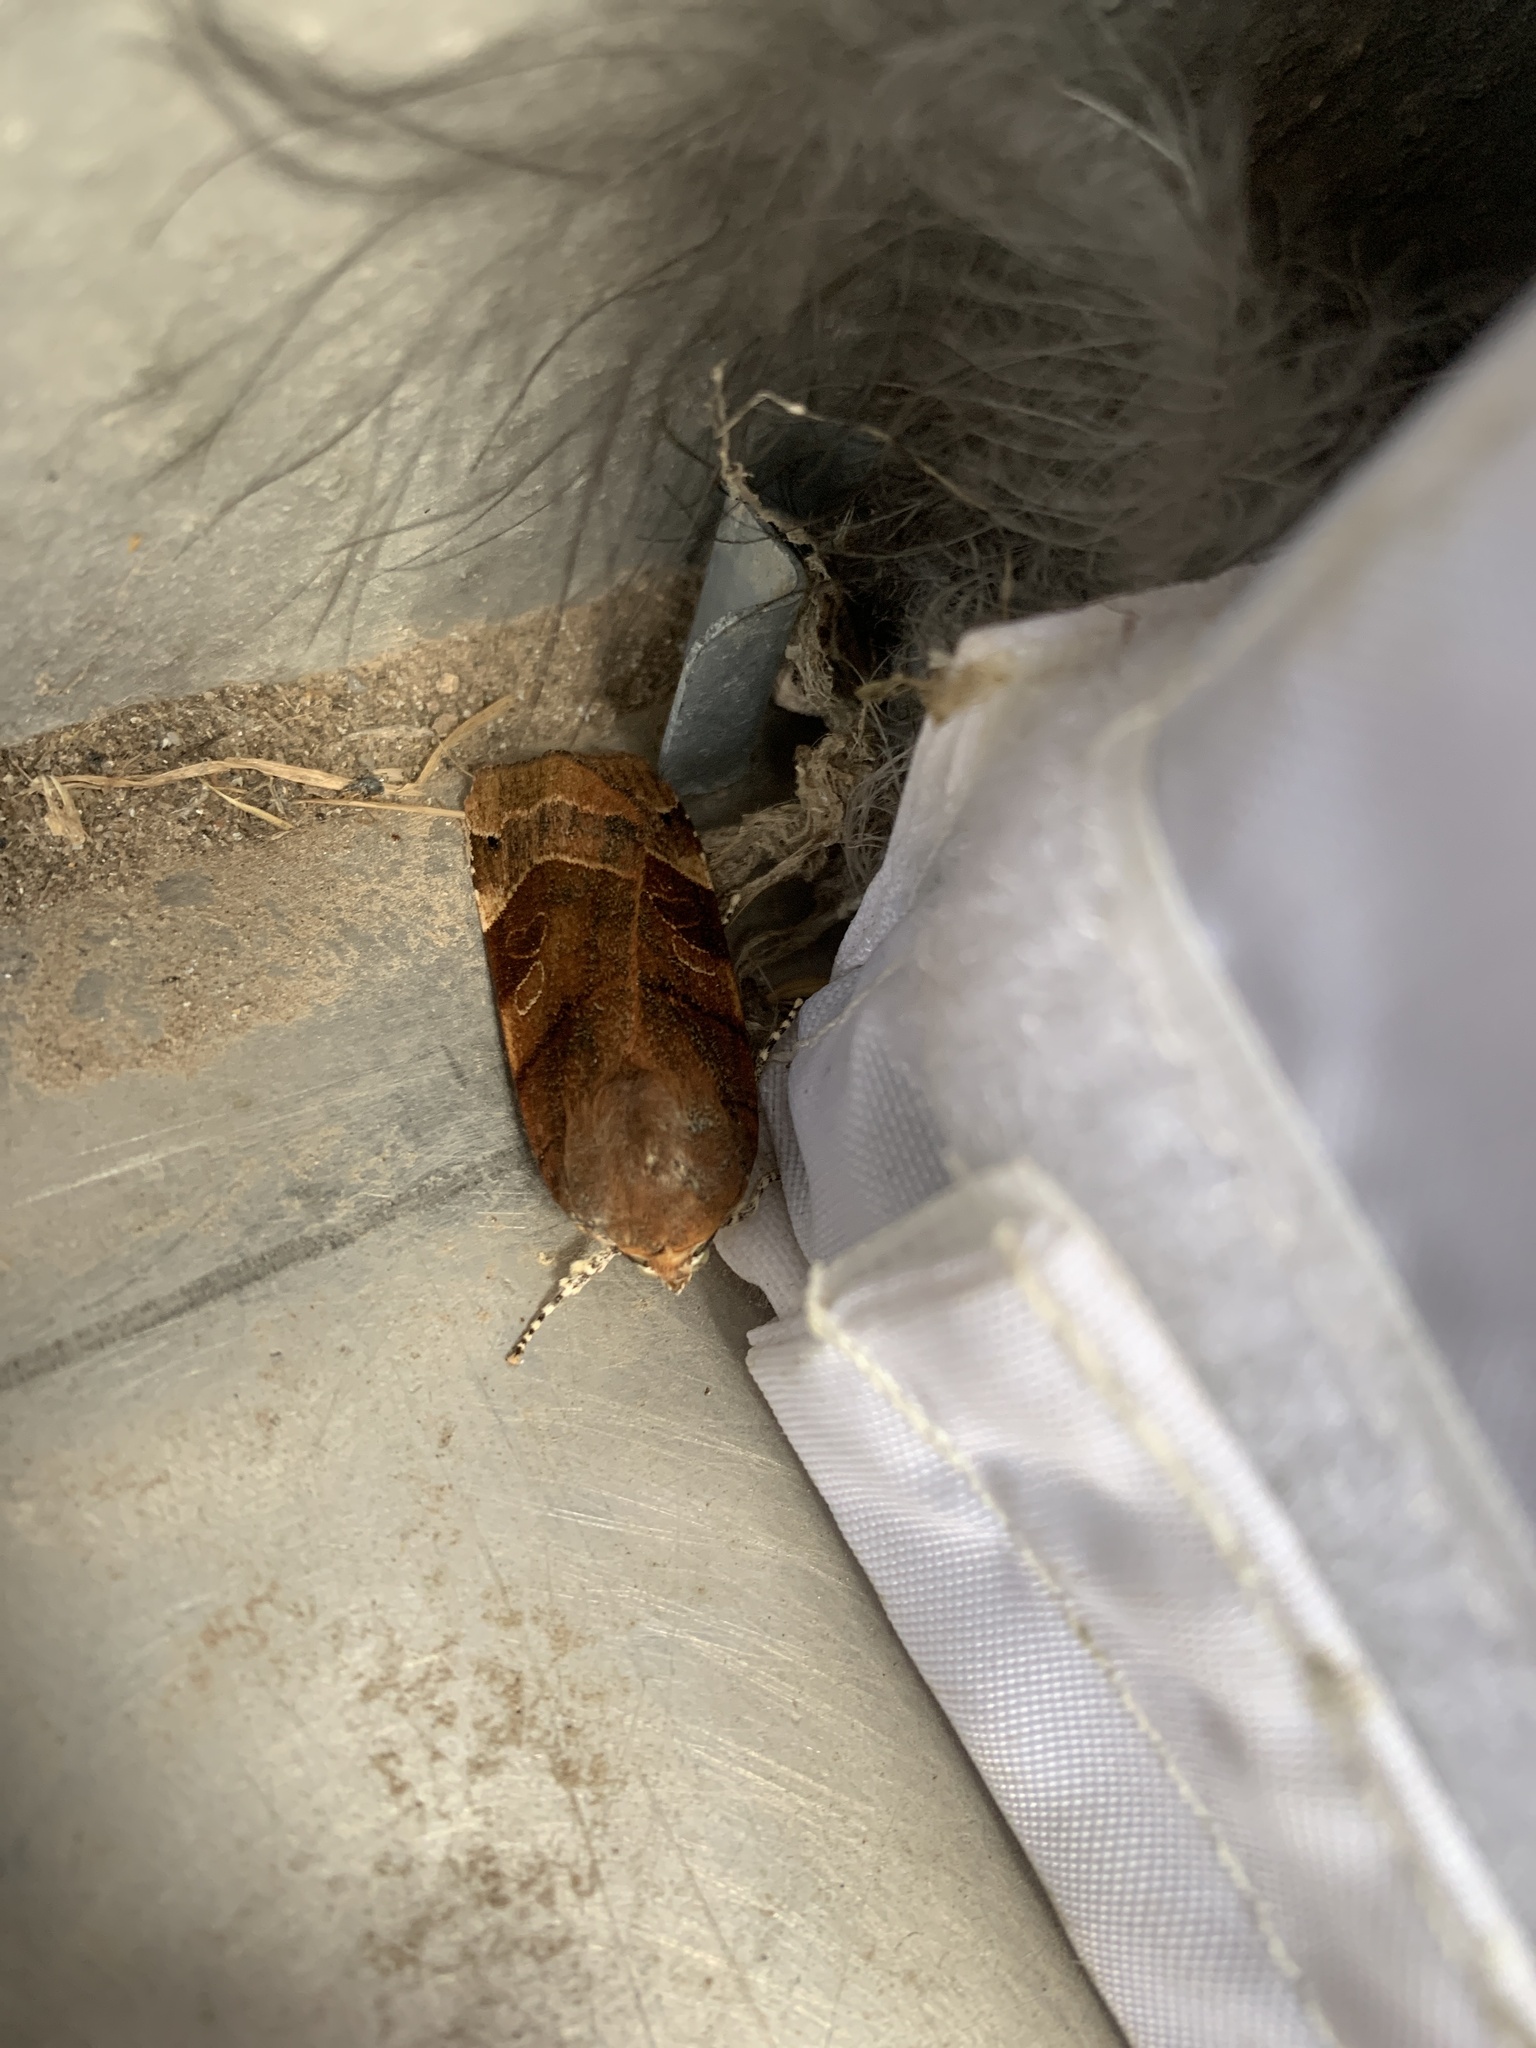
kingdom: Animalia
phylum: Arthropoda
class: Insecta
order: Lepidoptera
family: Noctuidae
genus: Noctua
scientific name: Noctua fimbriata
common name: Broad-bordered yellow underwing
